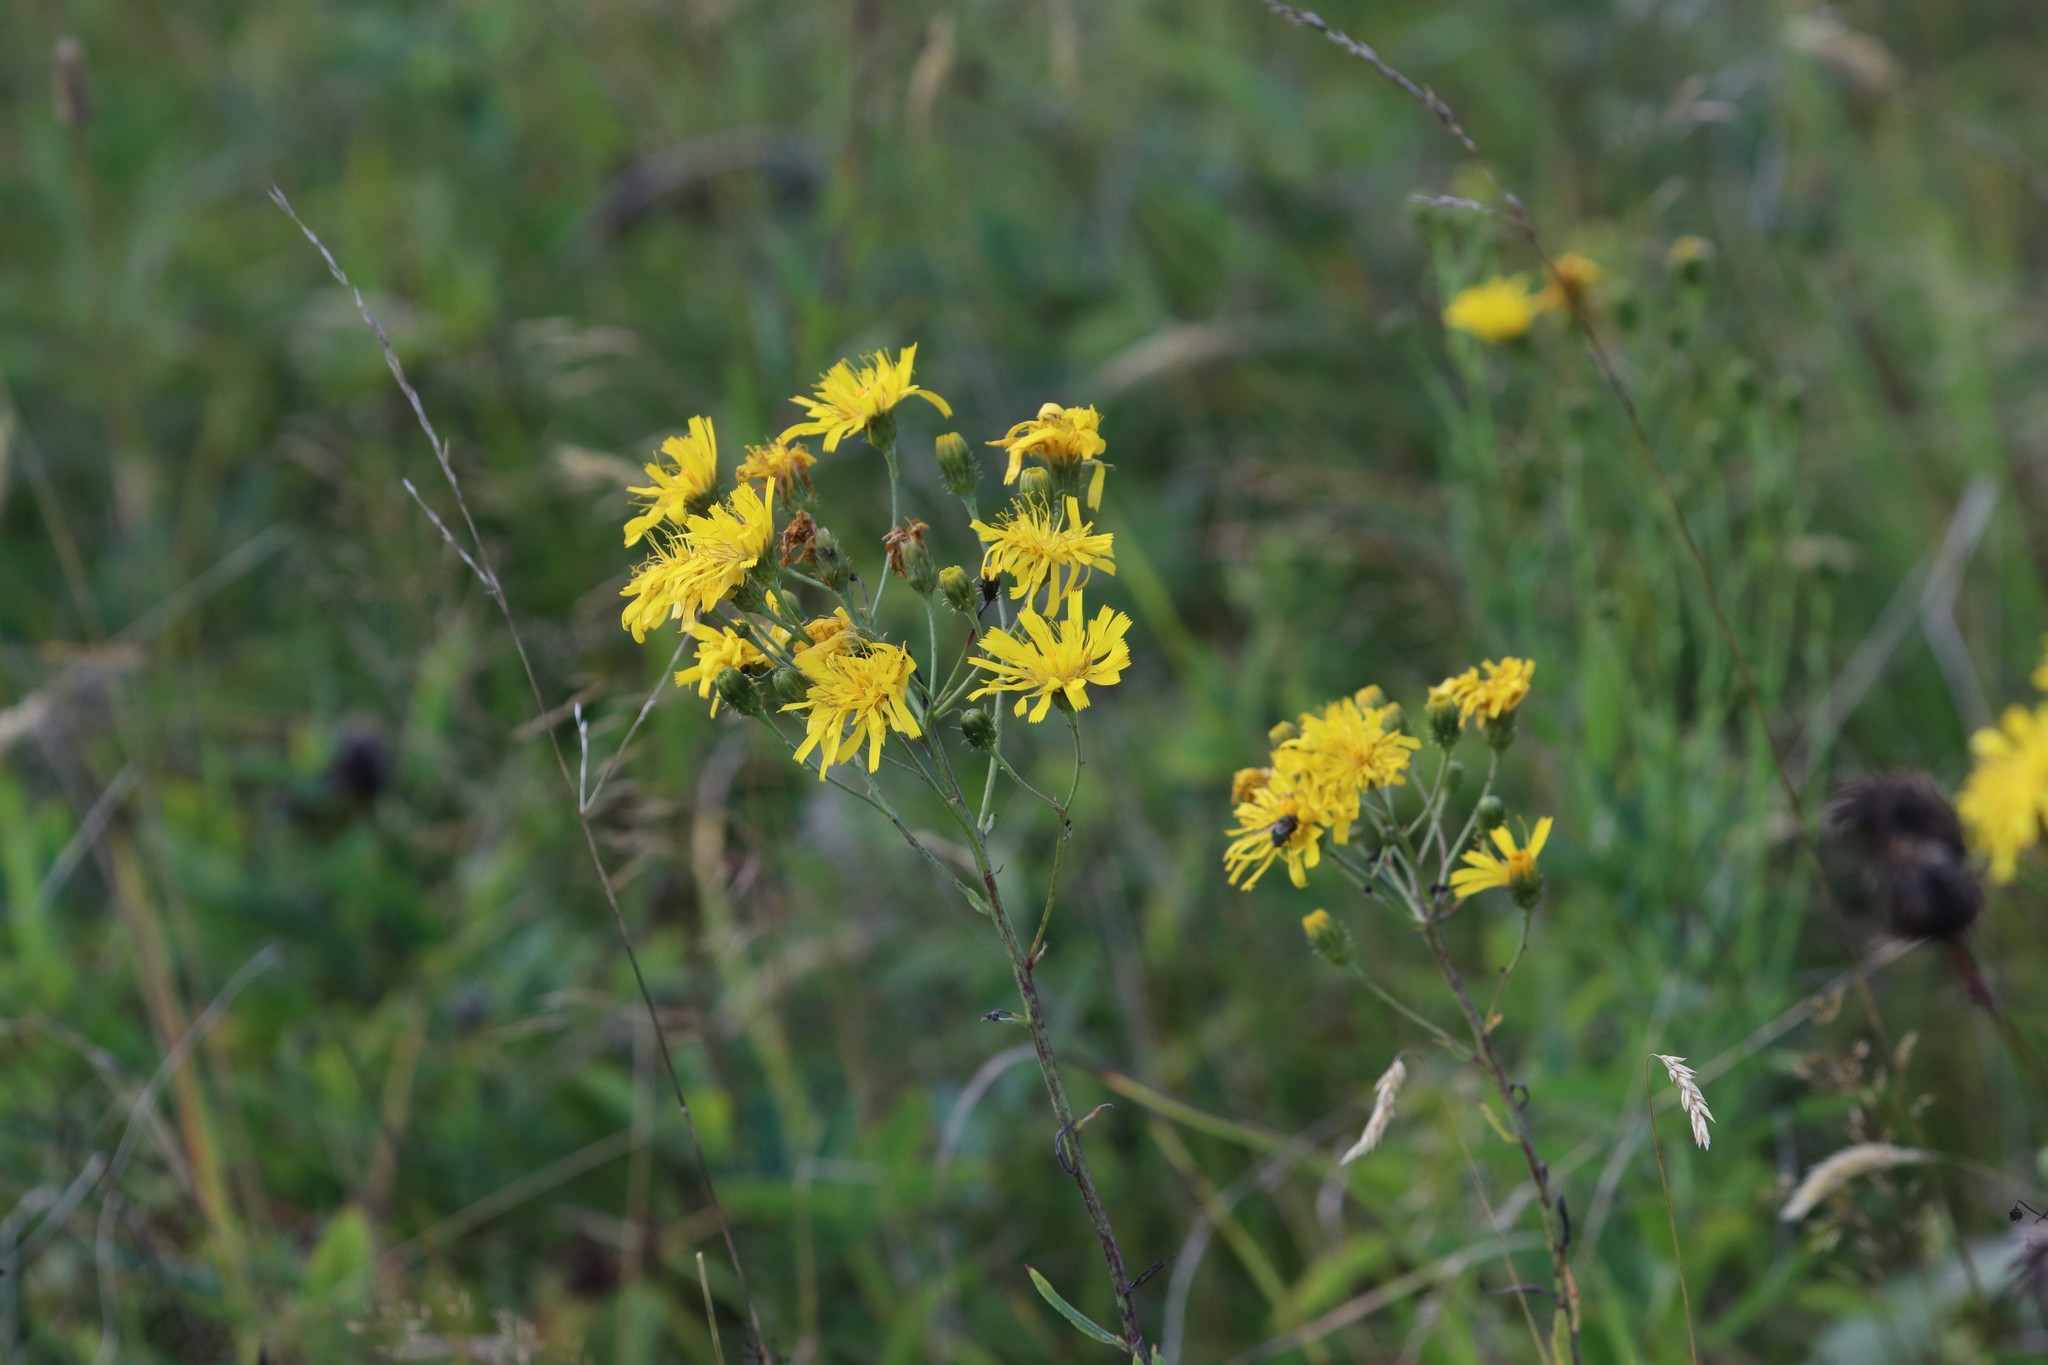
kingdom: Plantae
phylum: Tracheophyta
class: Magnoliopsida
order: Asterales
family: Asteraceae
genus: Hieracium
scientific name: Hieracium umbellatum
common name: Northern hawkweed
